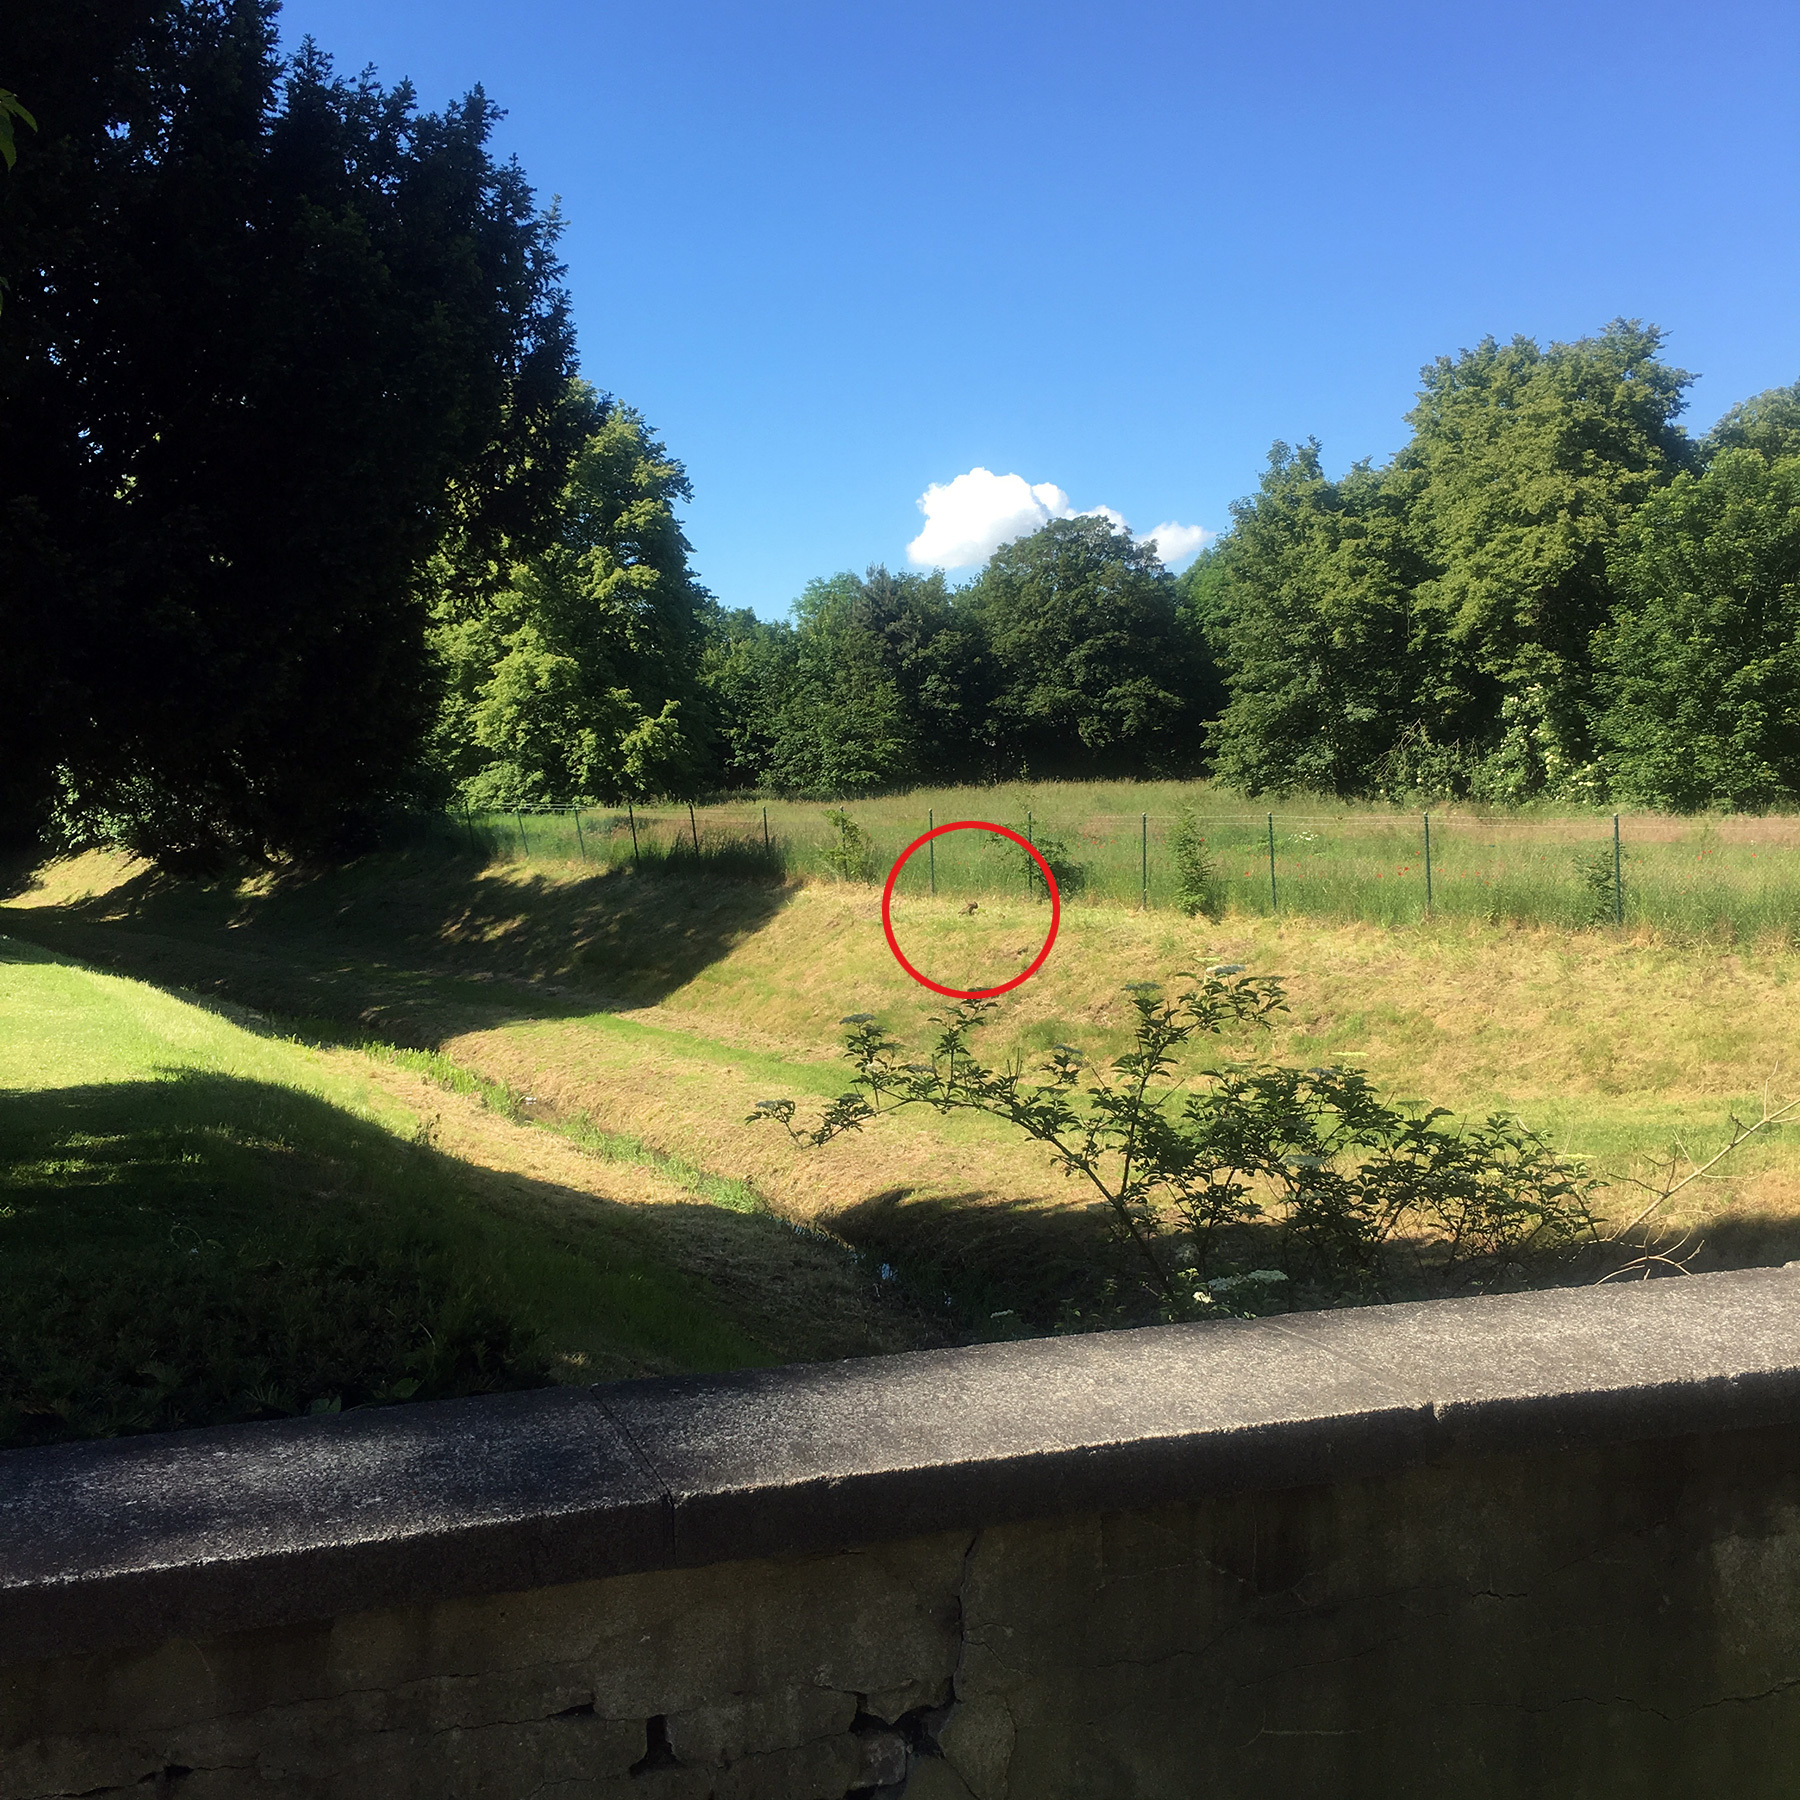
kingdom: Animalia
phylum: Chordata
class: Aves
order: Accipitriformes
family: Accipitridae
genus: Buteo
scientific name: Buteo buteo
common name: Common buzzard
